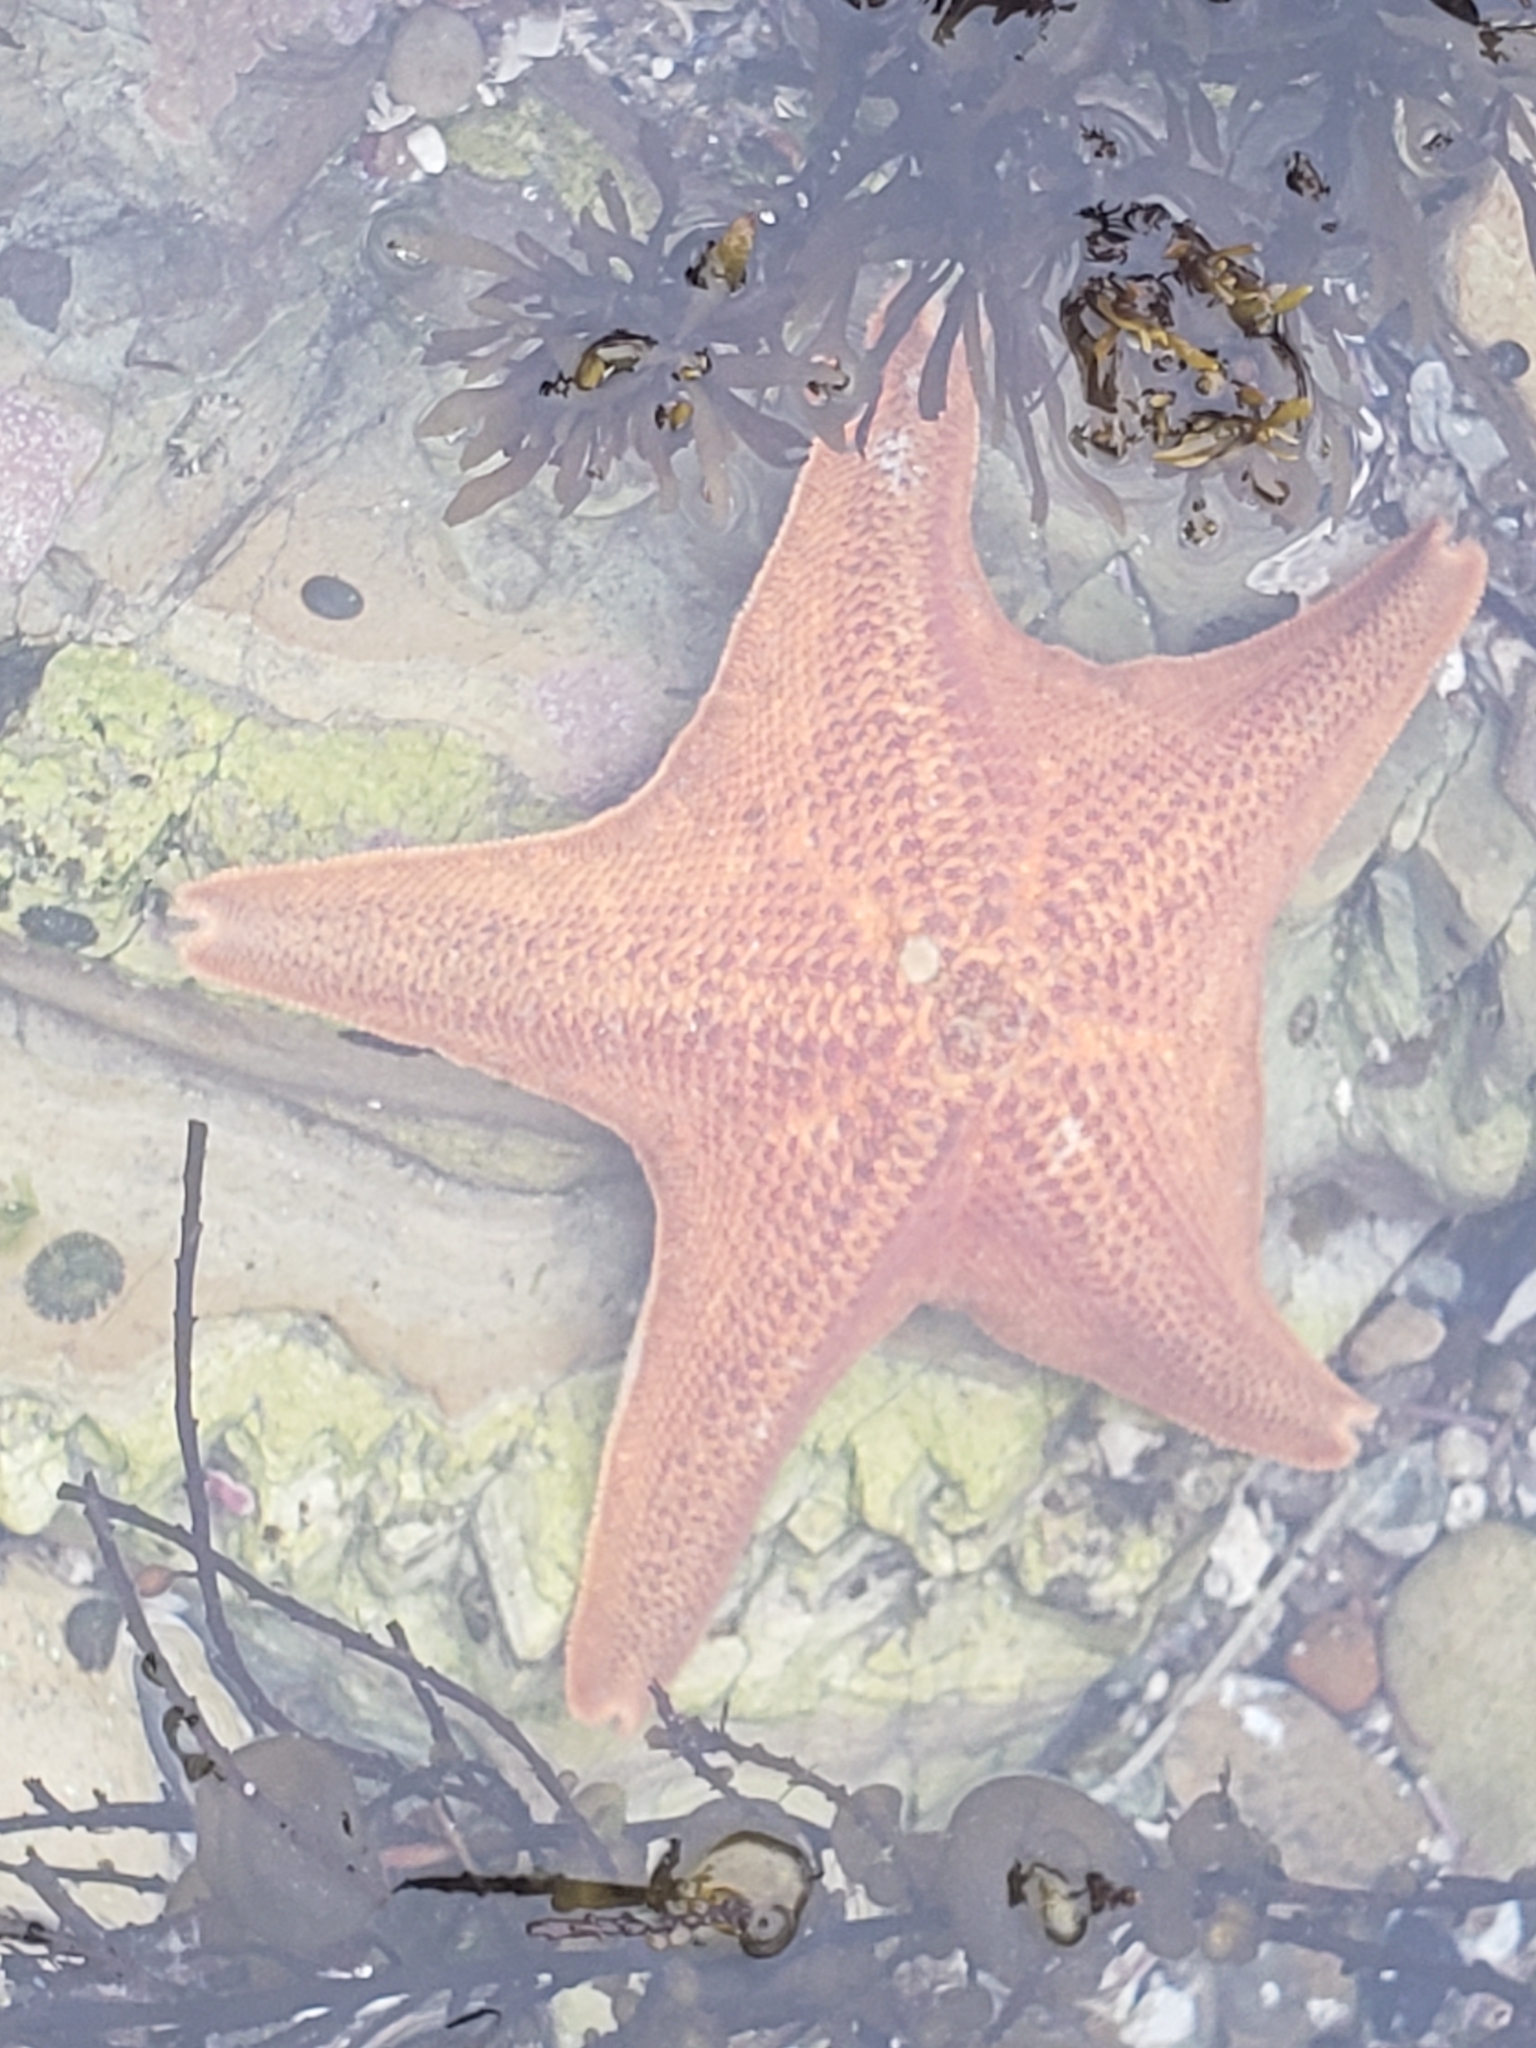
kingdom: Animalia
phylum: Echinodermata
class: Asteroidea
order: Valvatida
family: Asterinidae
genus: Patiria
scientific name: Patiria miniata
